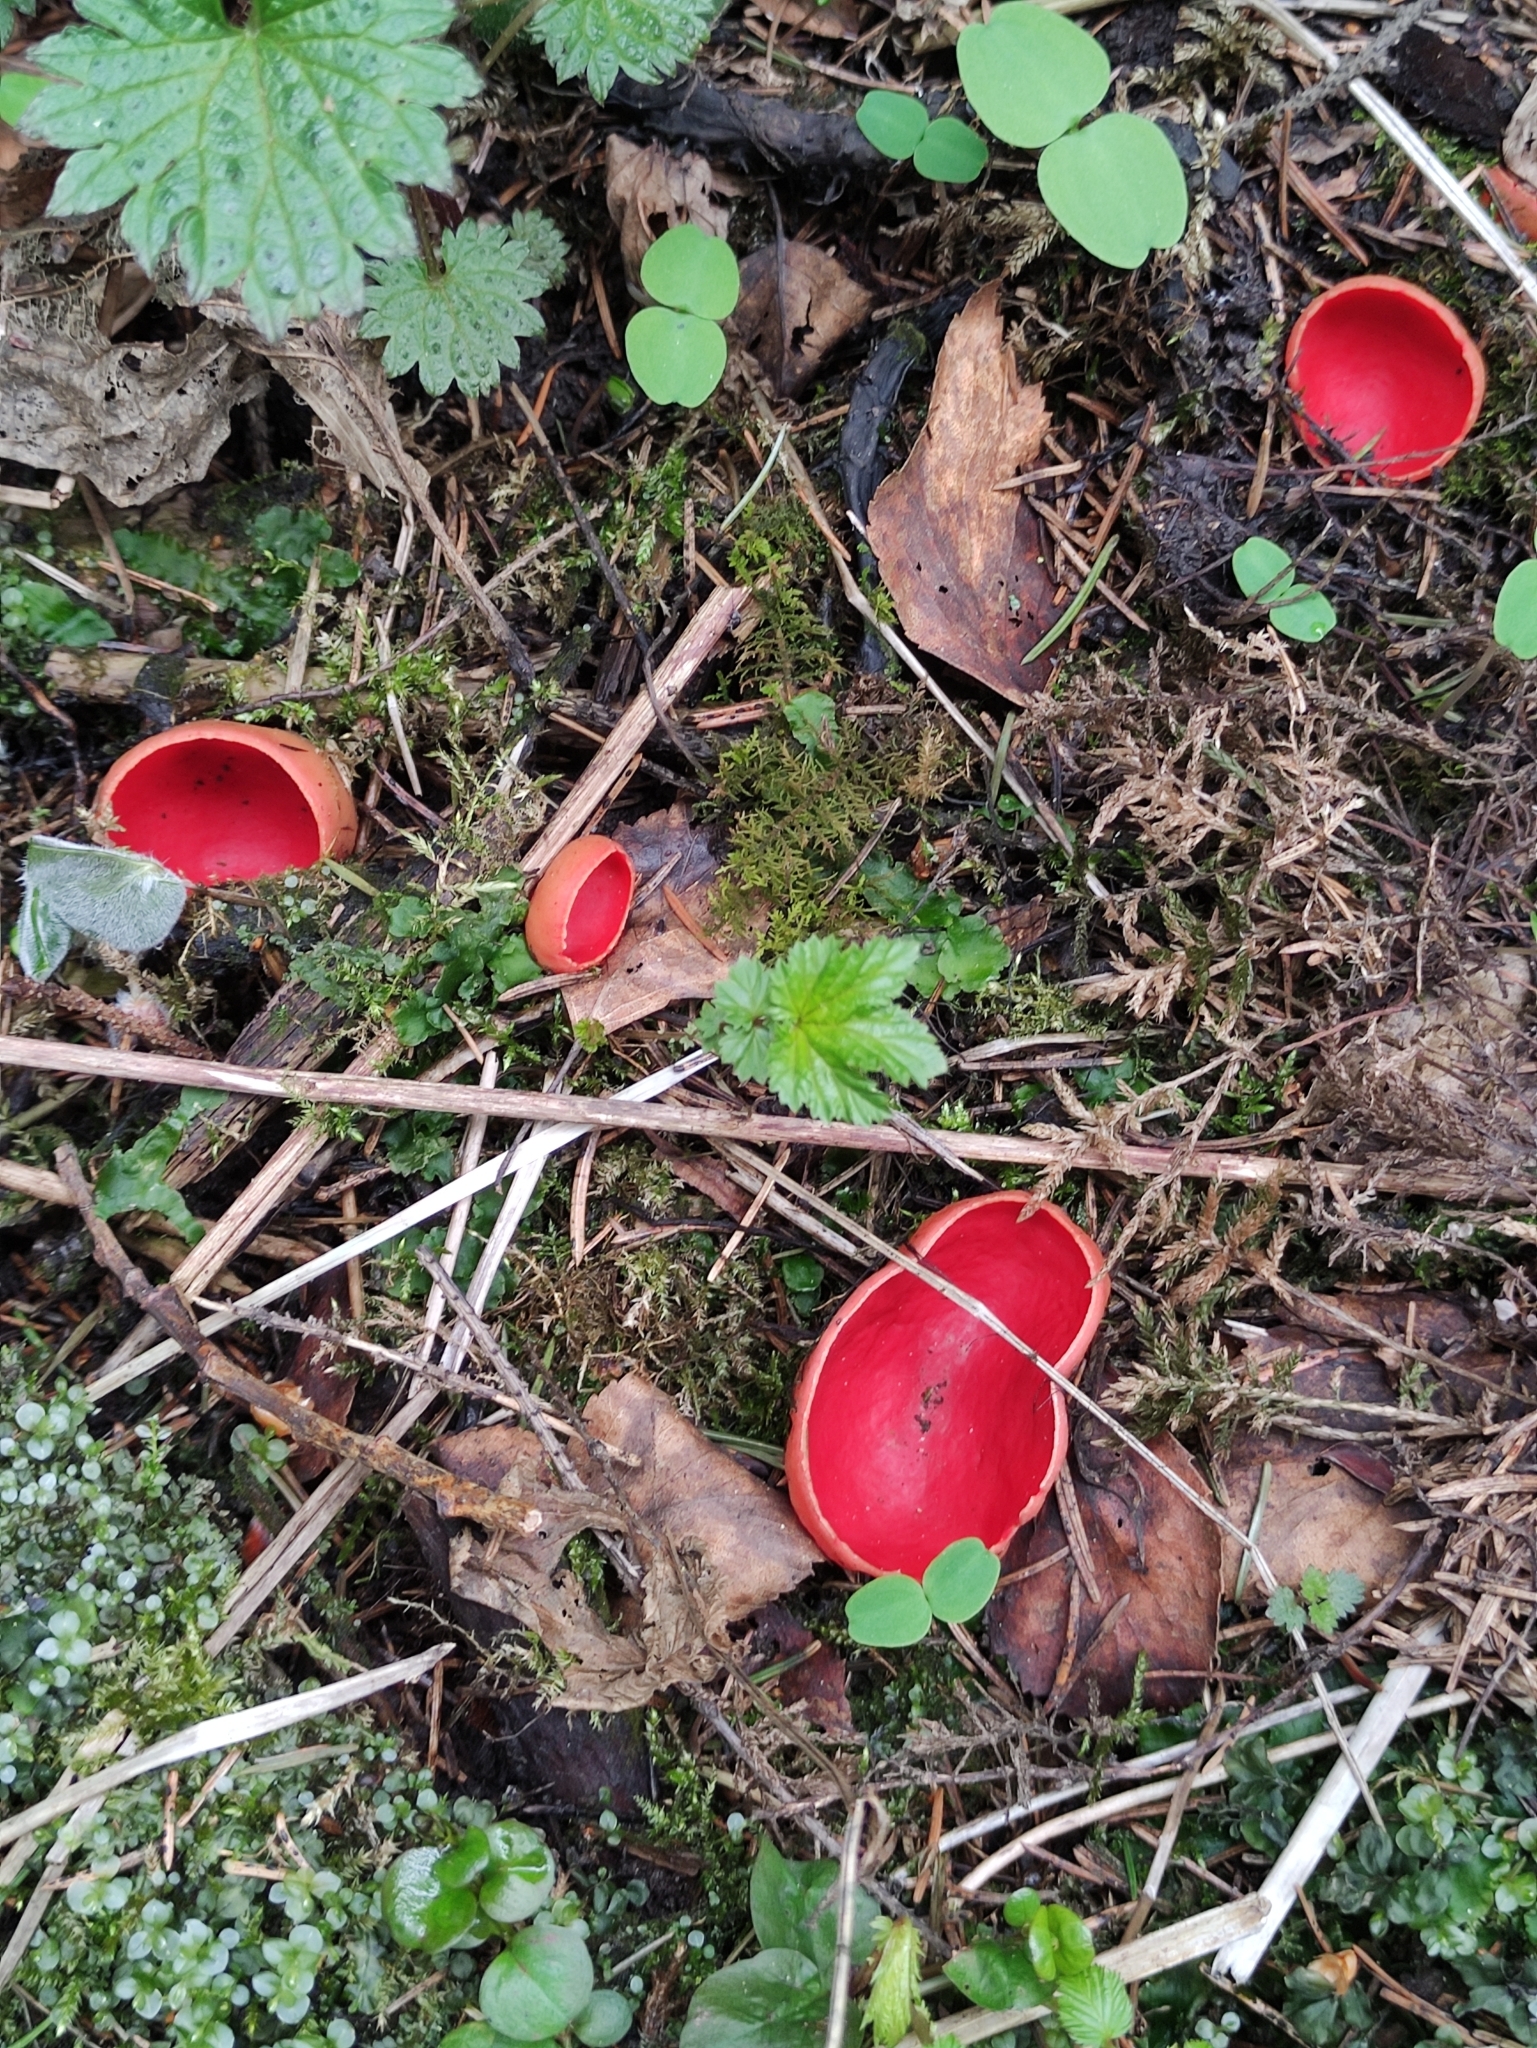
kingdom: Fungi
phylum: Ascomycota
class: Pezizomycetes
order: Pezizales
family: Sarcoscyphaceae
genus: Sarcoscypha
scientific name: Sarcoscypha austriaca
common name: Scarlet elfcup
